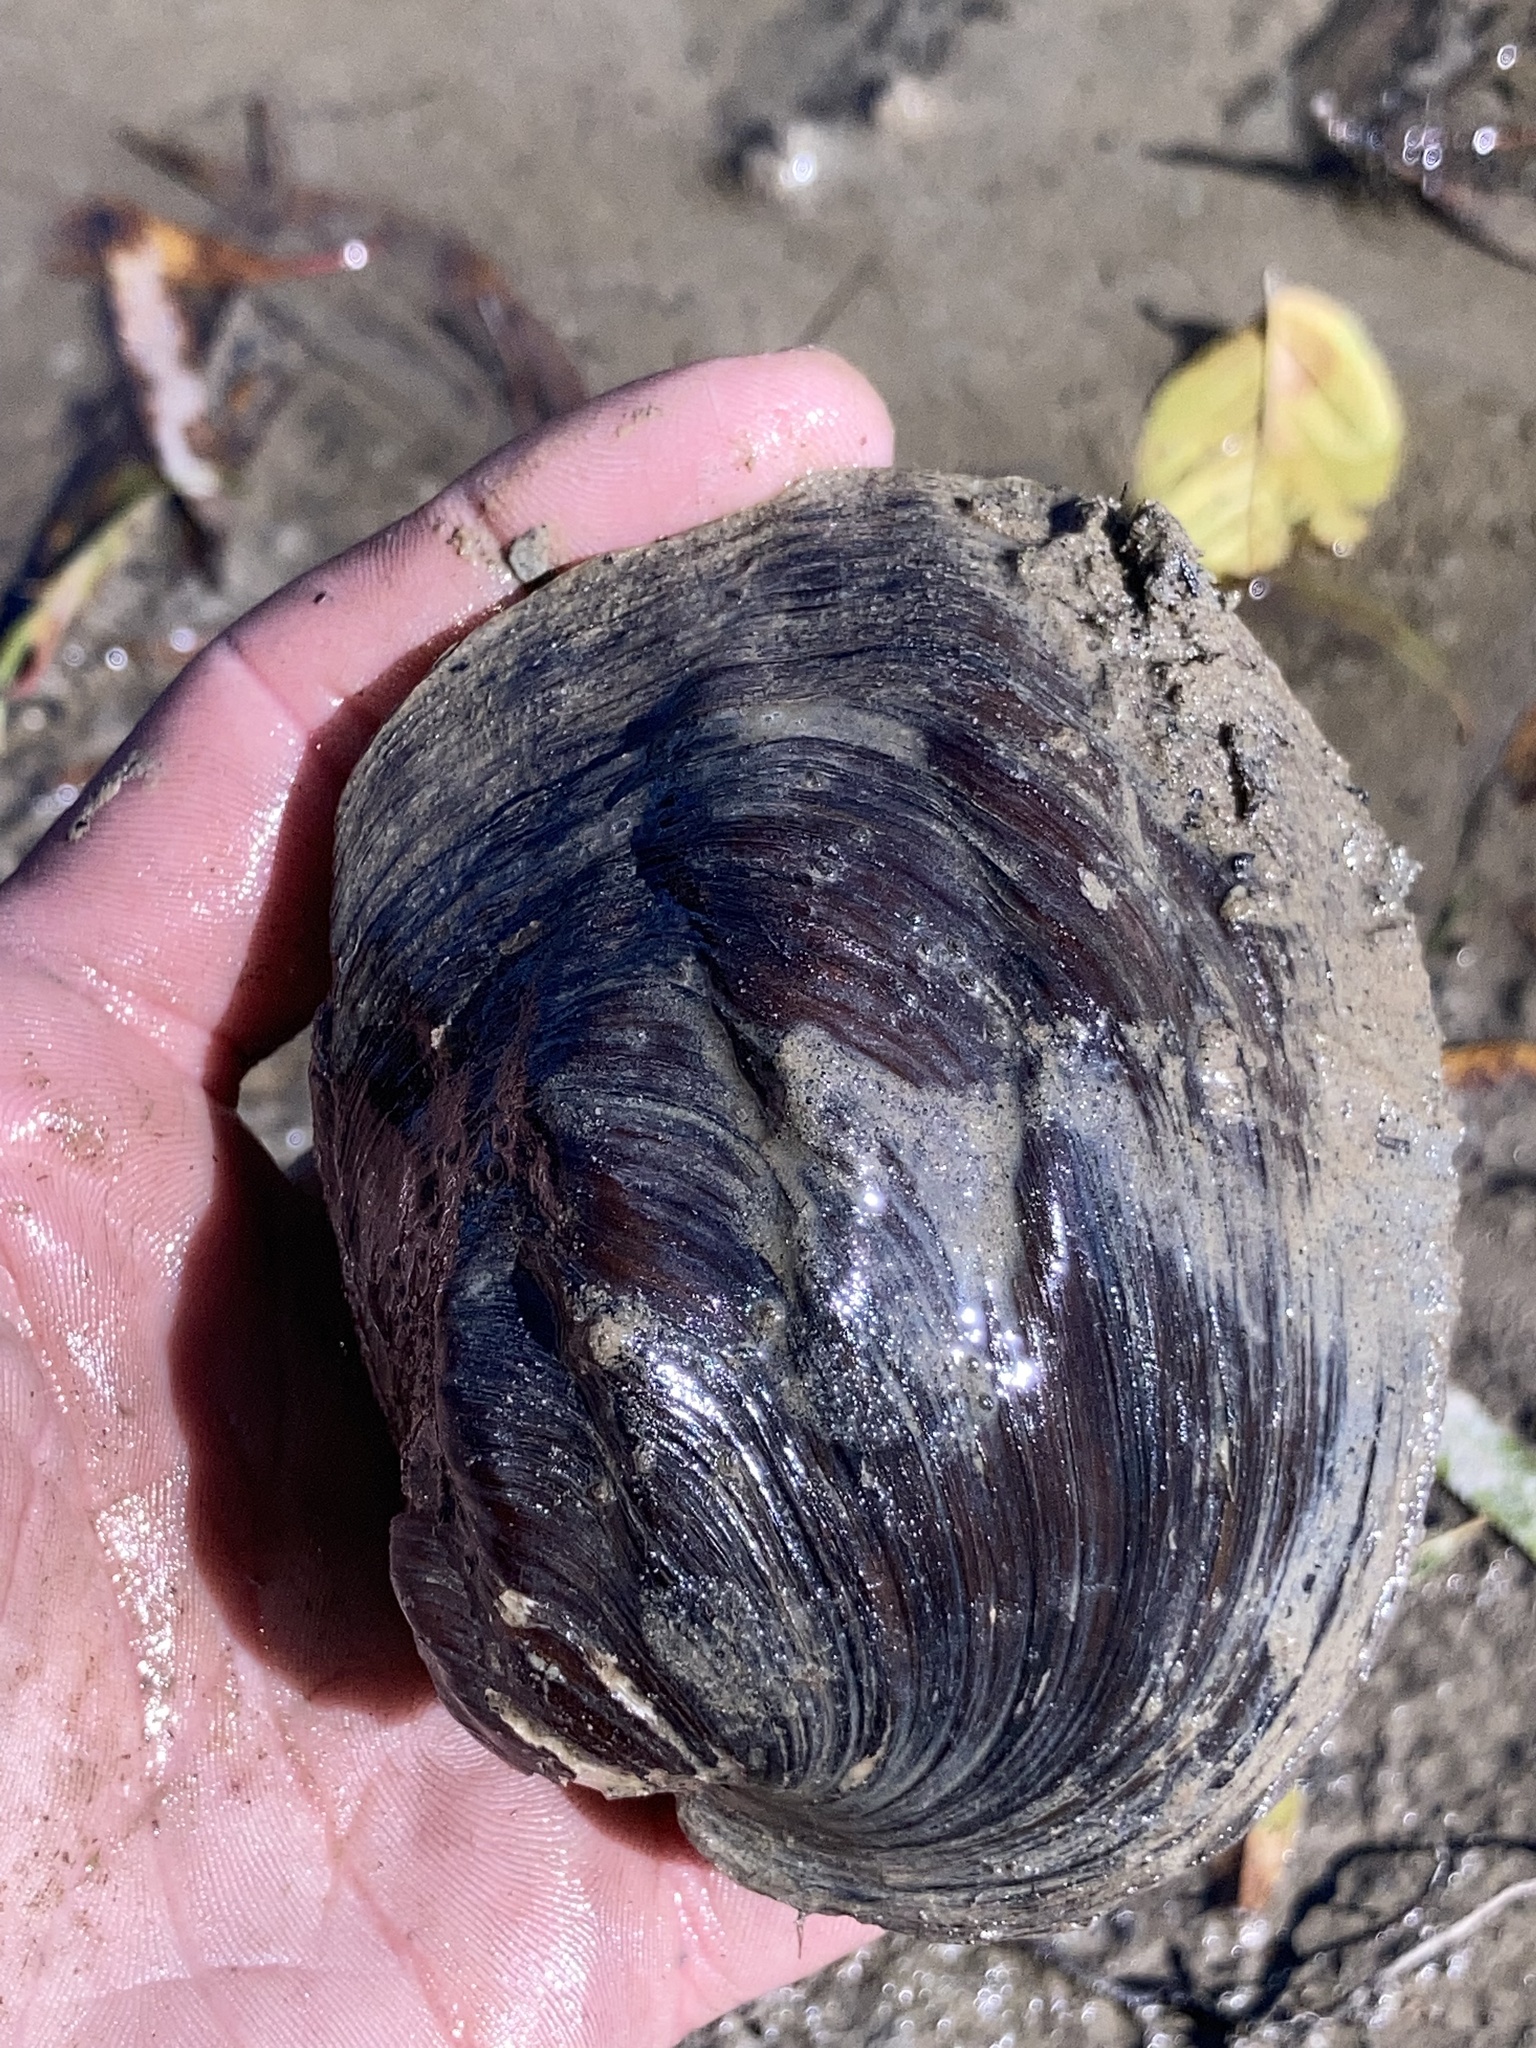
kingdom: Animalia
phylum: Mollusca
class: Bivalvia
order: Unionida
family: Unionidae
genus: Amblema
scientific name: Amblema plicata
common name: Threeridge
